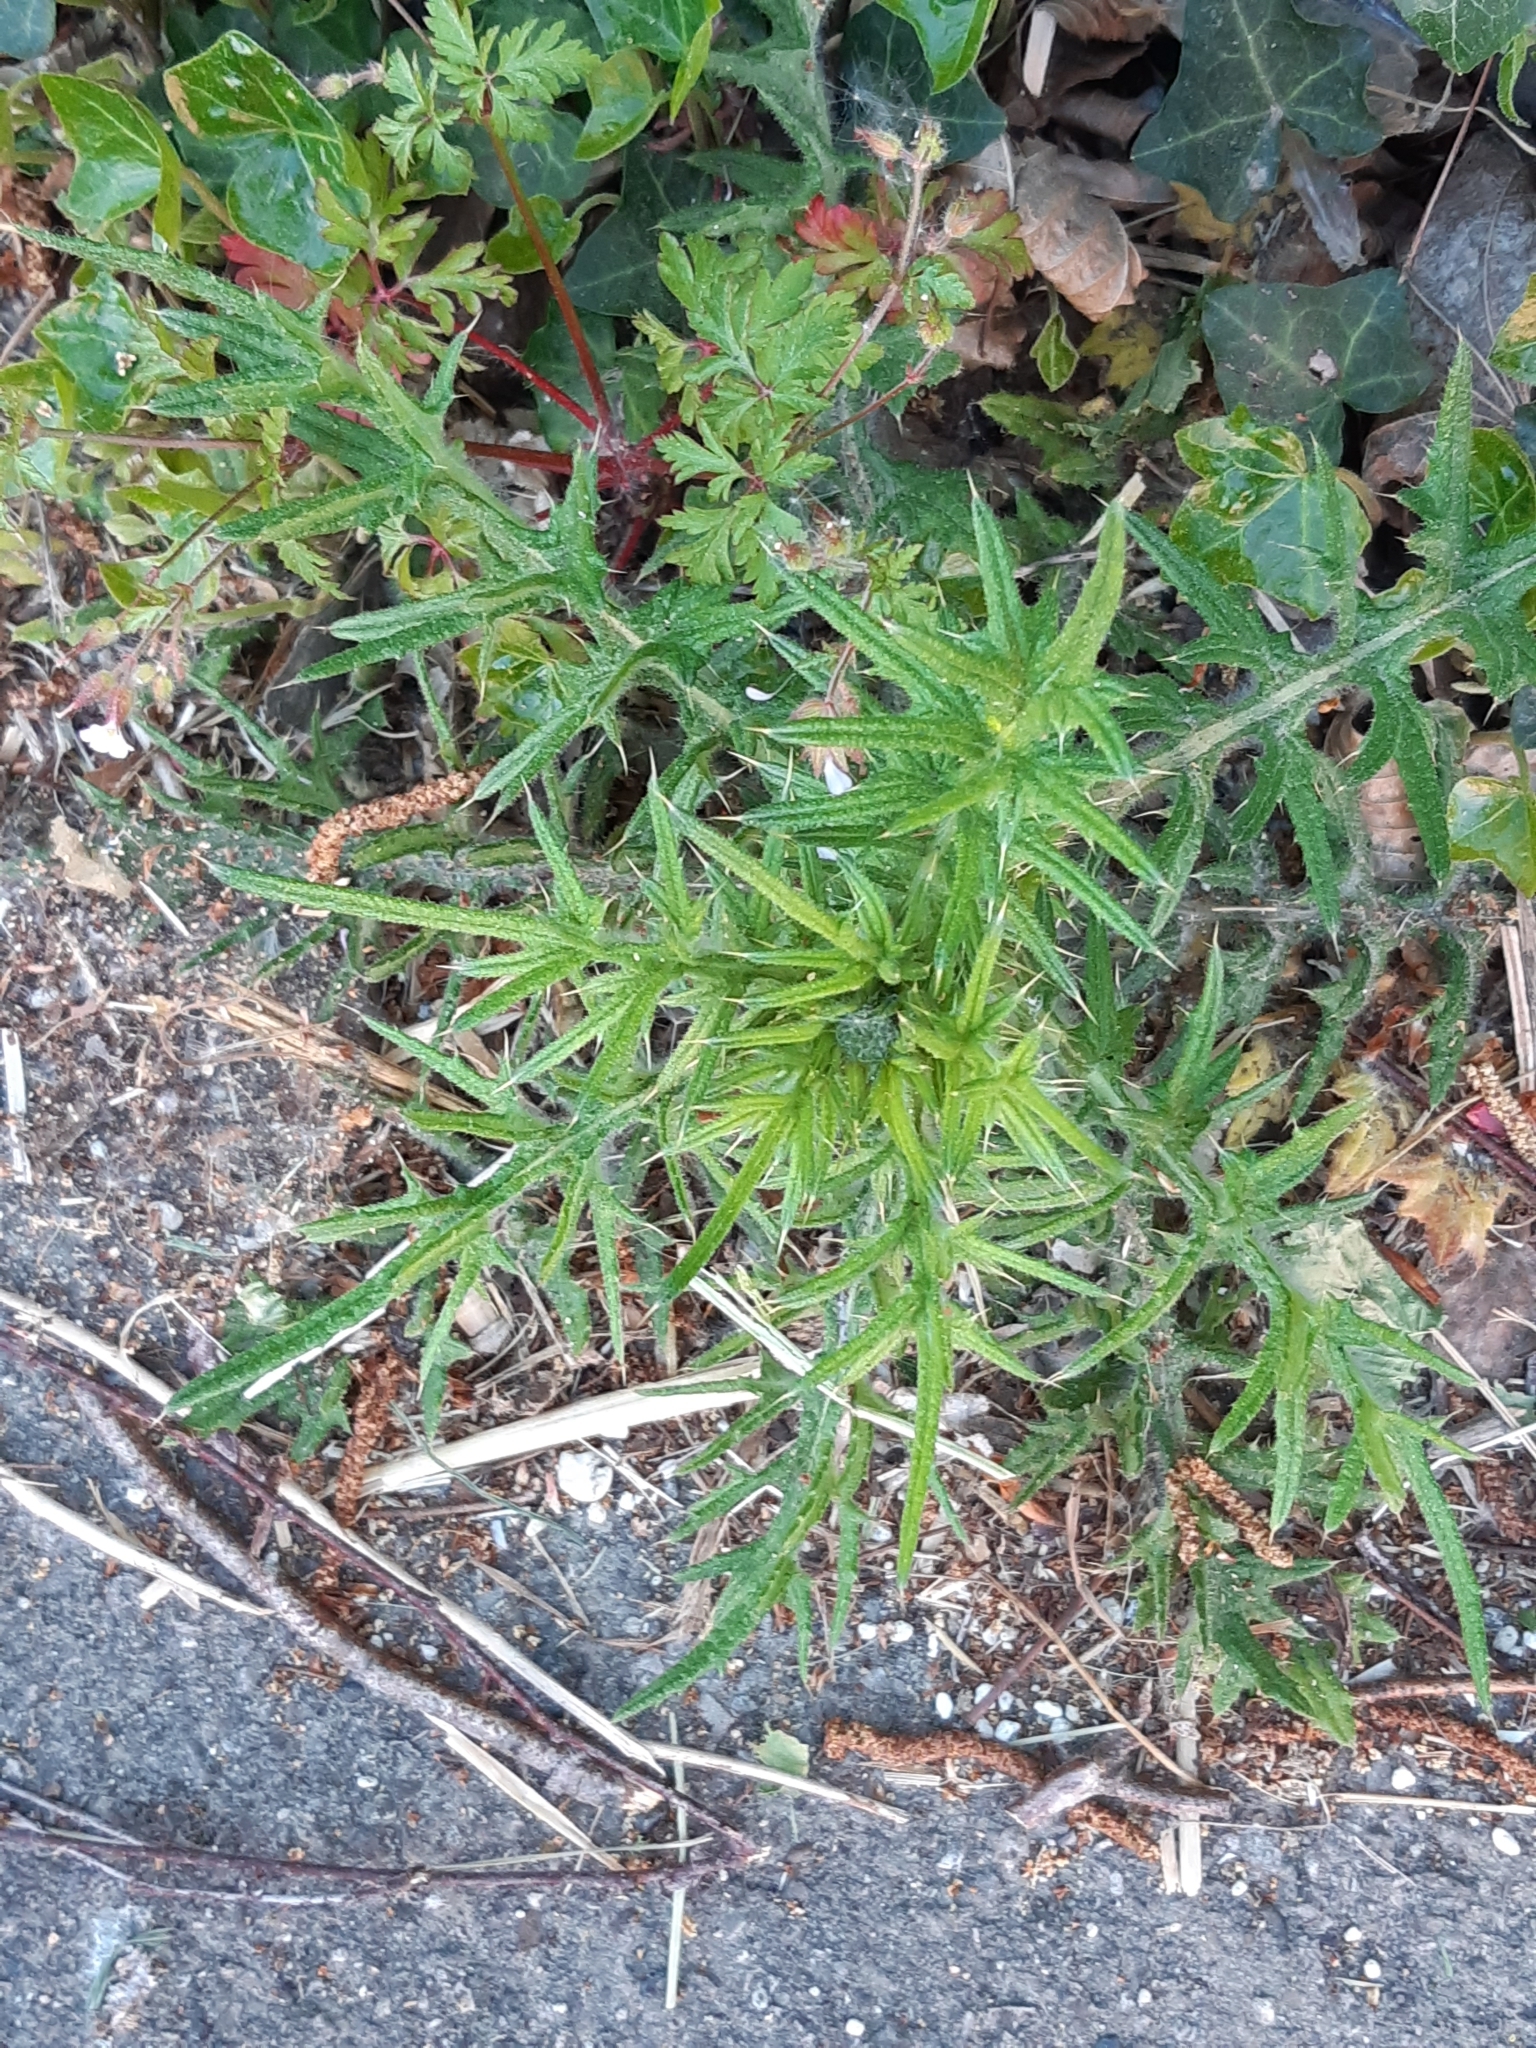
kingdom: Plantae
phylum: Tracheophyta
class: Magnoliopsida
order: Asterales
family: Asteraceae
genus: Cirsium
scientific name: Cirsium vulgare
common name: Bull thistle
